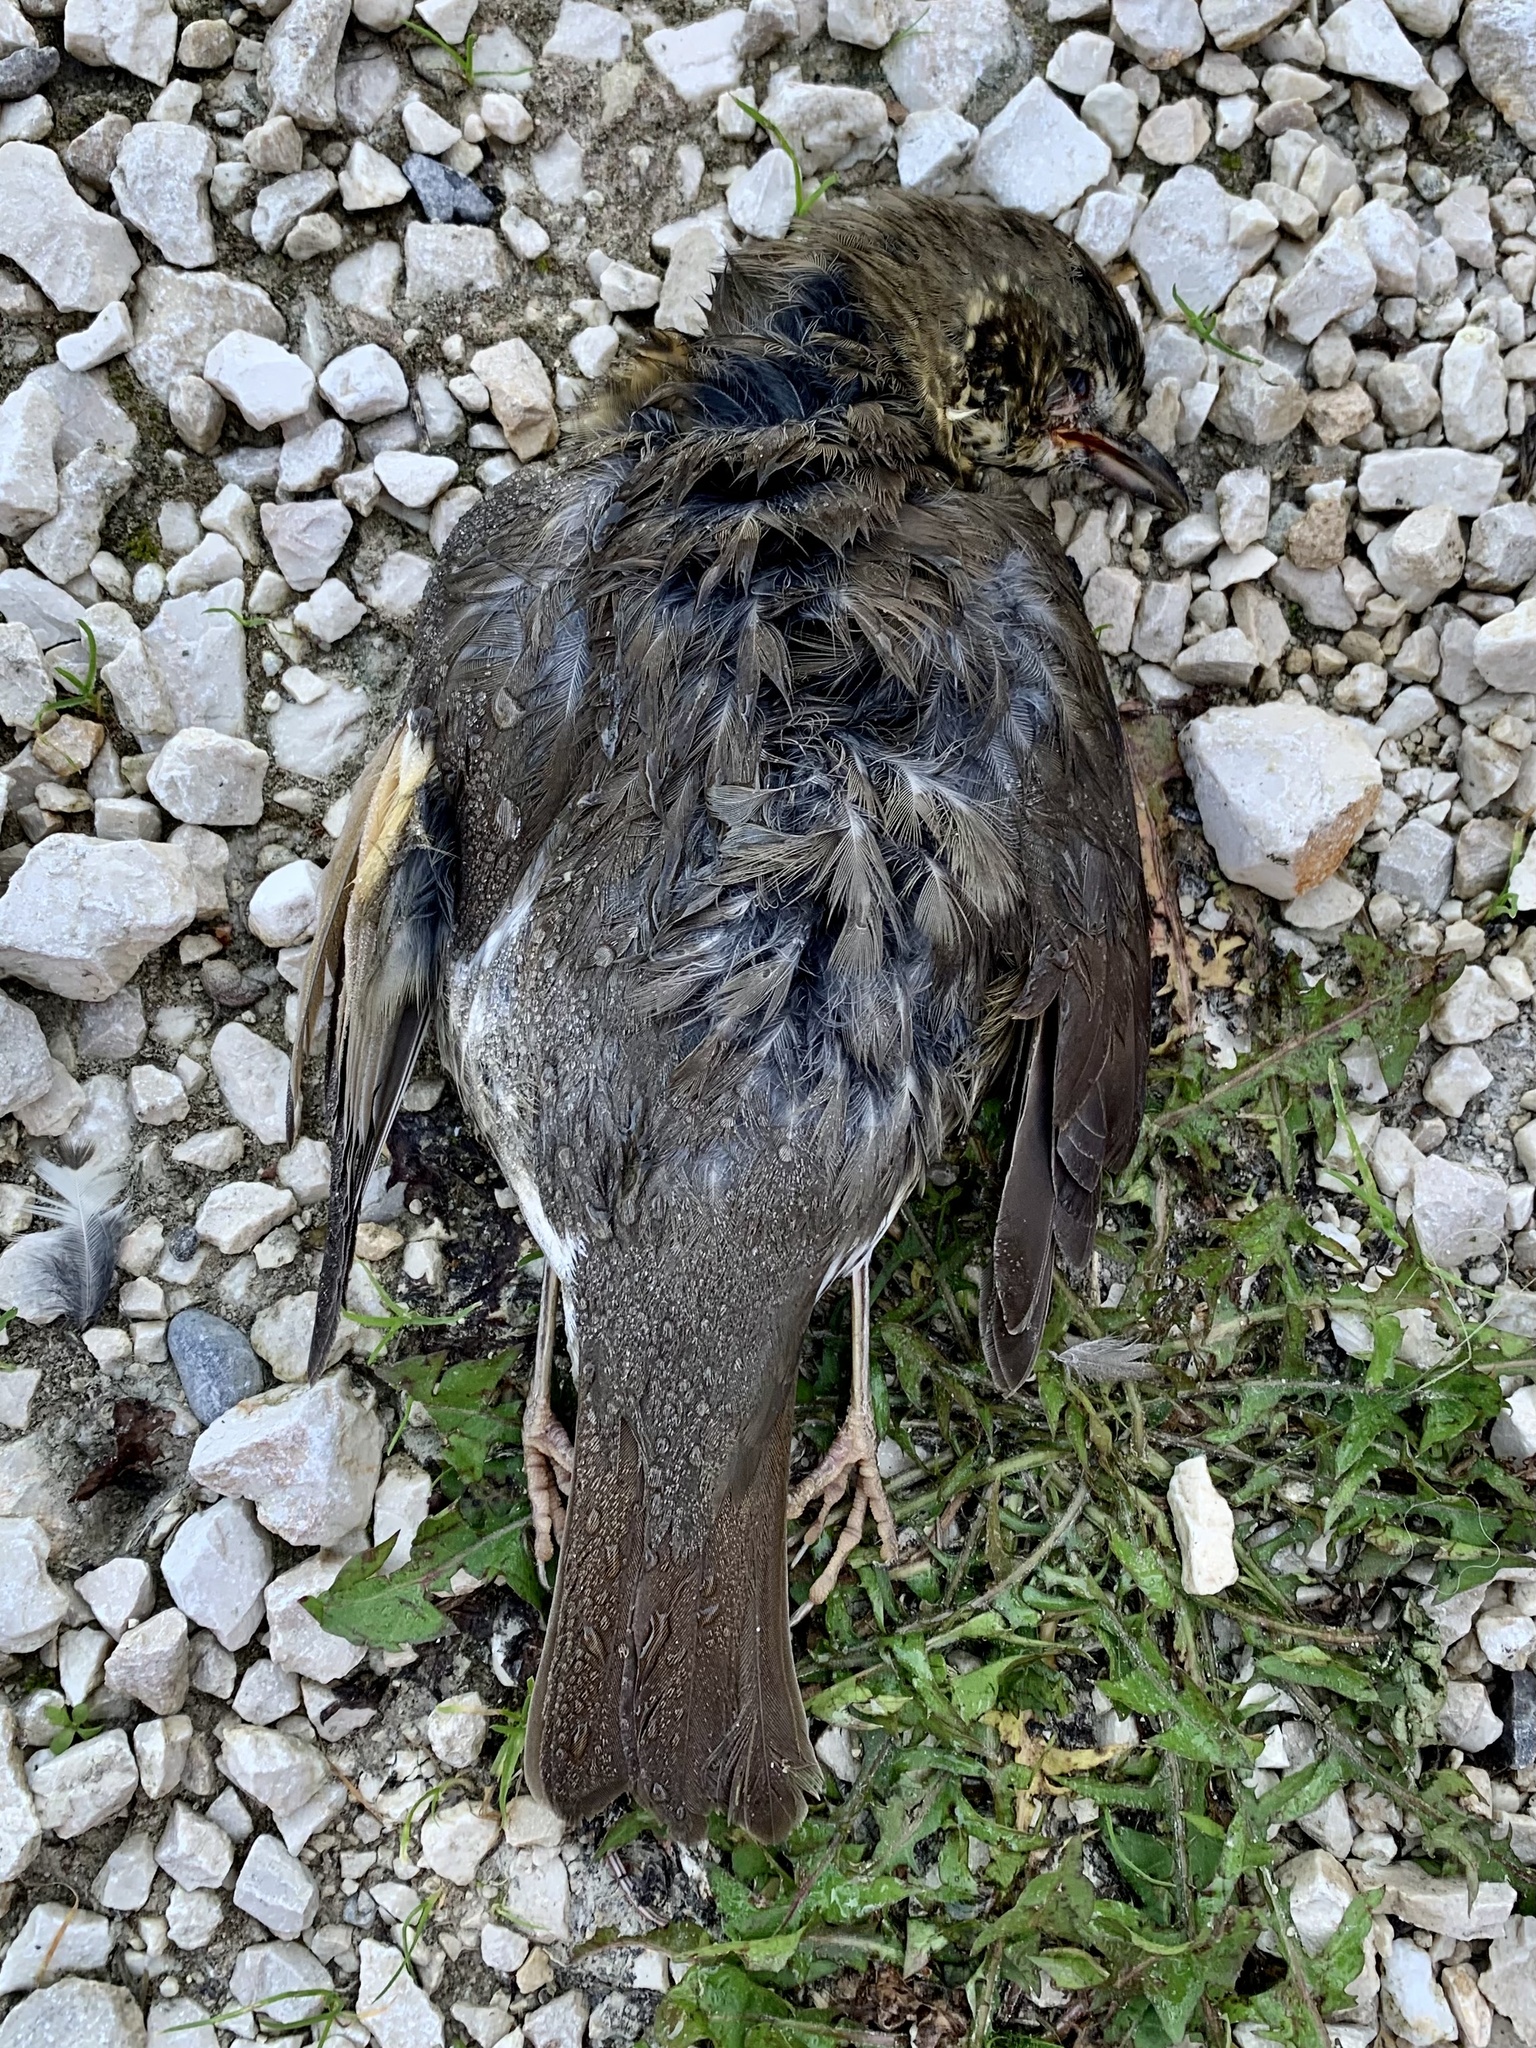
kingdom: Animalia
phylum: Chordata
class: Aves
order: Passeriformes
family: Turdidae
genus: Turdus
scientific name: Turdus philomelos
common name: Song thrush
